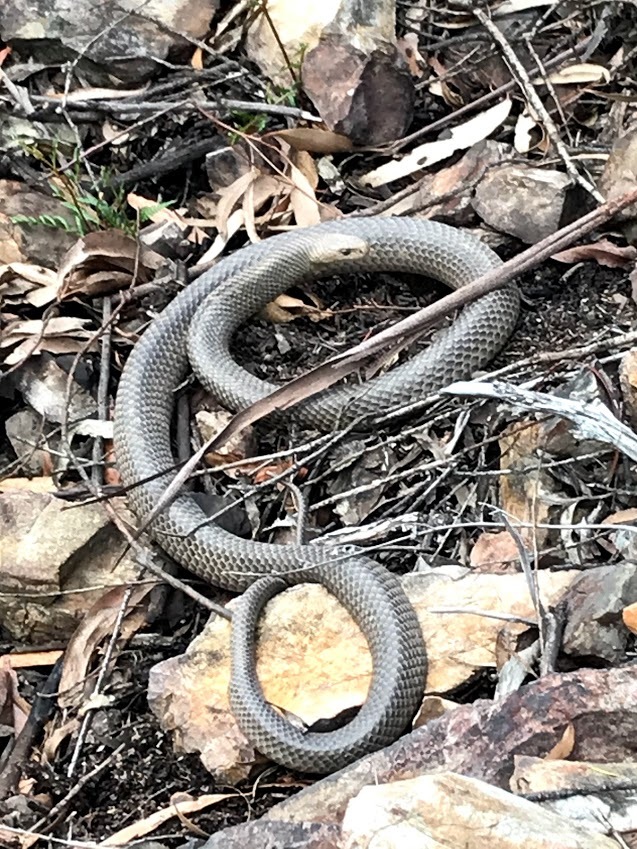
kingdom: Animalia
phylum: Chordata
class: Squamata
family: Elapidae
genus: Pseudonaja
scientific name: Pseudonaja textilis
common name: Eastern brown snake
